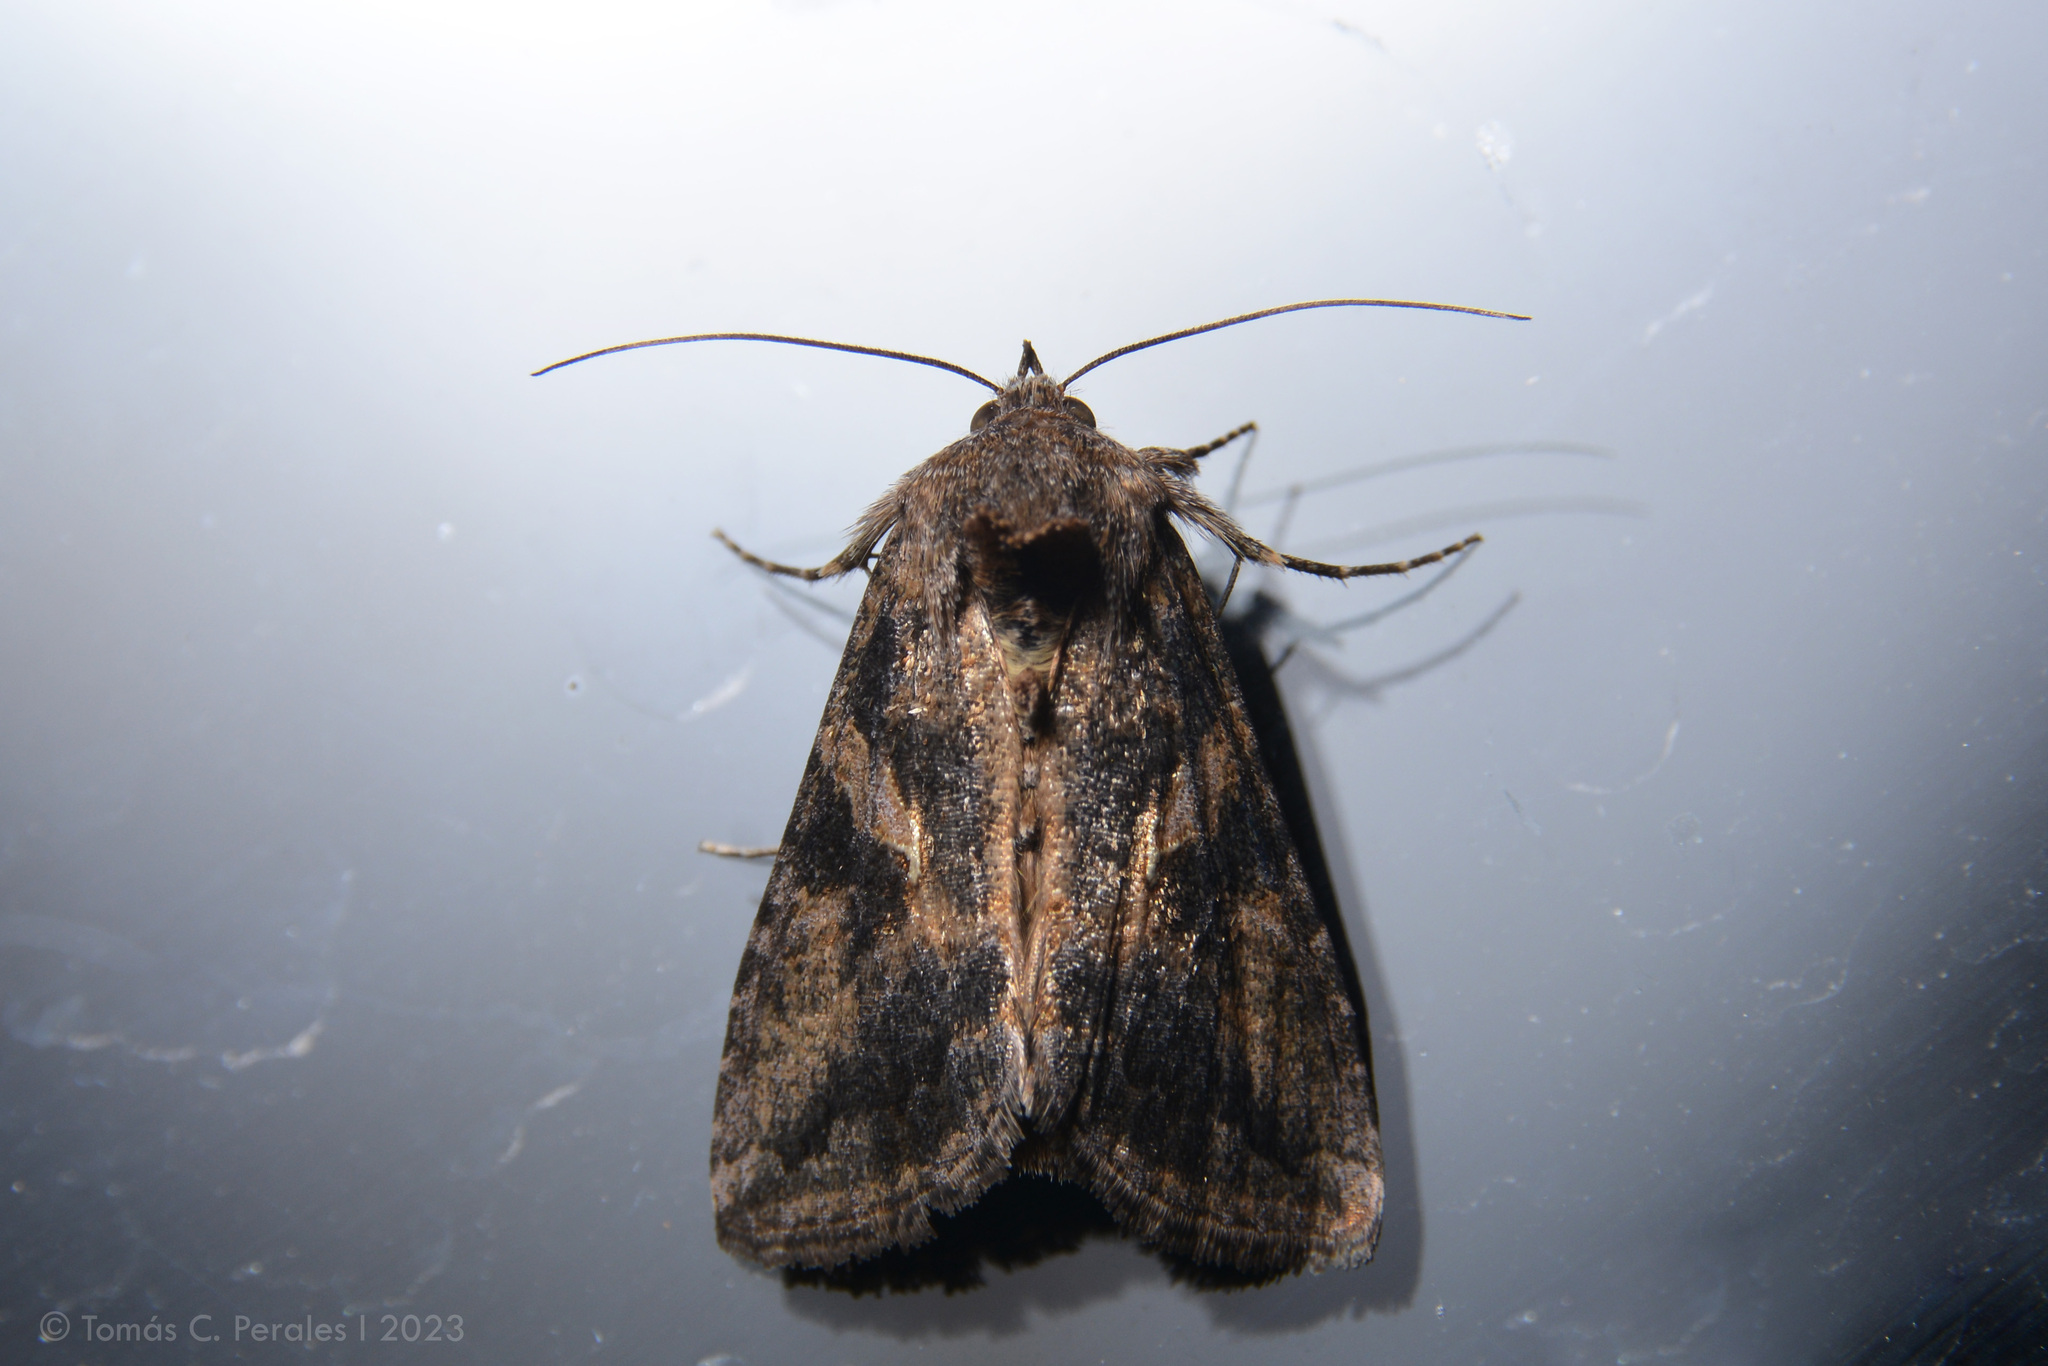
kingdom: Animalia
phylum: Arthropoda
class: Insecta
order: Lepidoptera
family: Noctuidae
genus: Rachiplusia
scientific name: Rachiplusia nu
